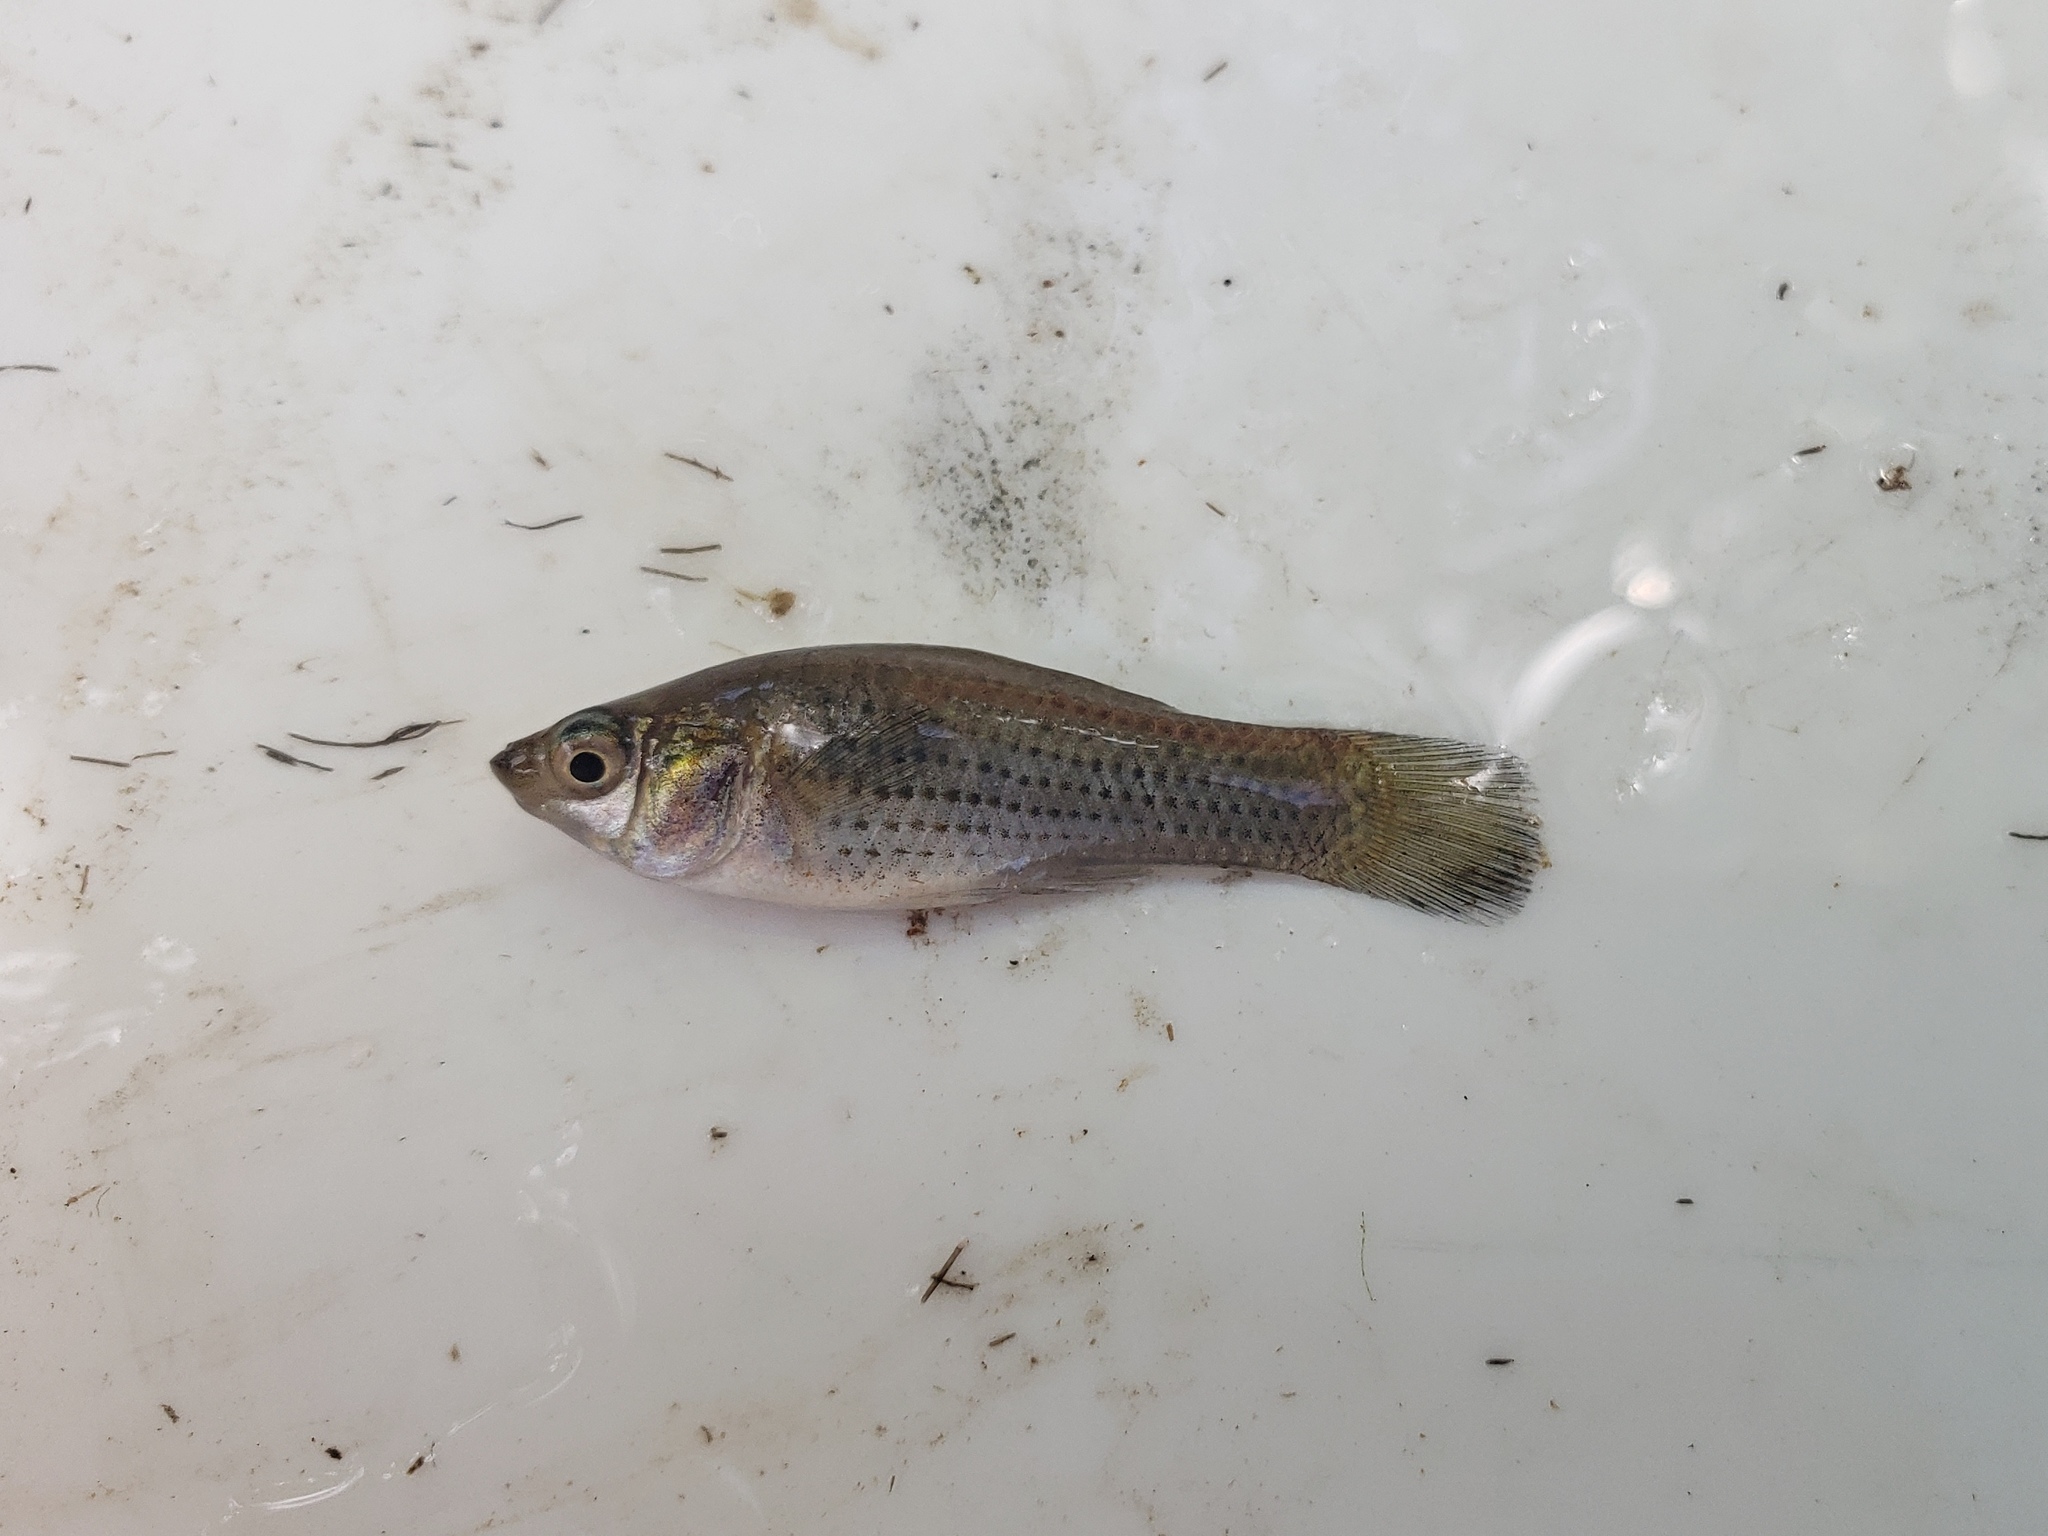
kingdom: Animalia
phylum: Chordata
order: Cyprinodontiformes
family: Poeciliidae
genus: Poecilia
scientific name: Poecilia latipinna
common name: Sailfin molly
